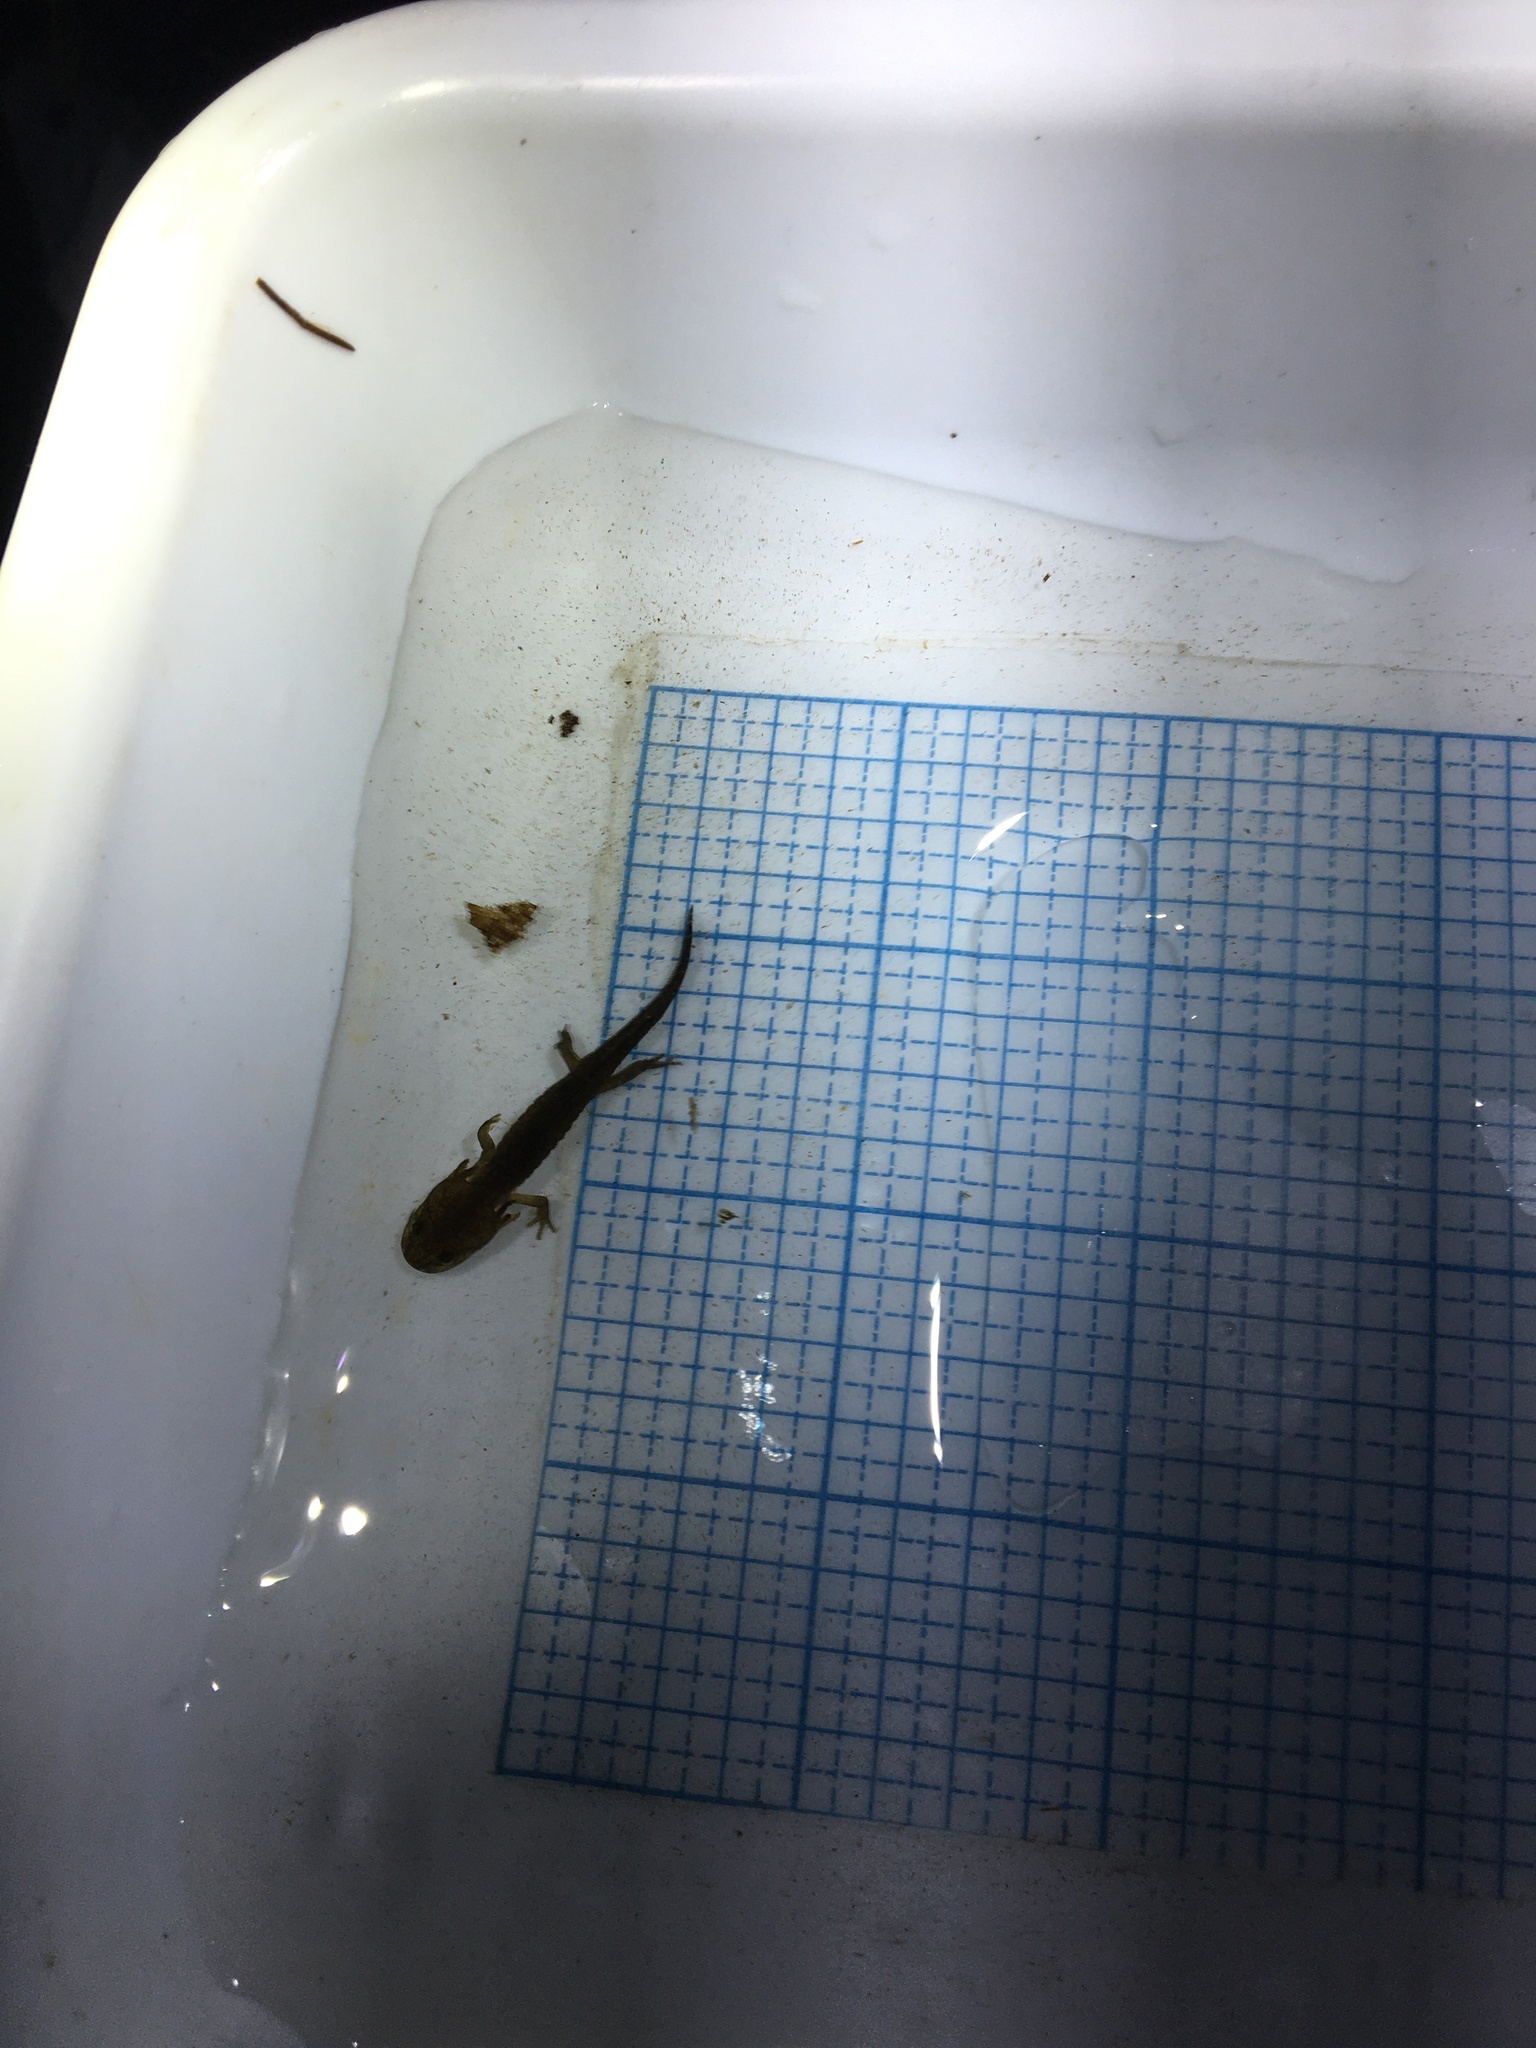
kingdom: Animalia
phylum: Chordata
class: Amphibia
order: Caudata
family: Ambystomatidae
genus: Ambystoma
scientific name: Ambystoma maculatum
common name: Spotted salamander
